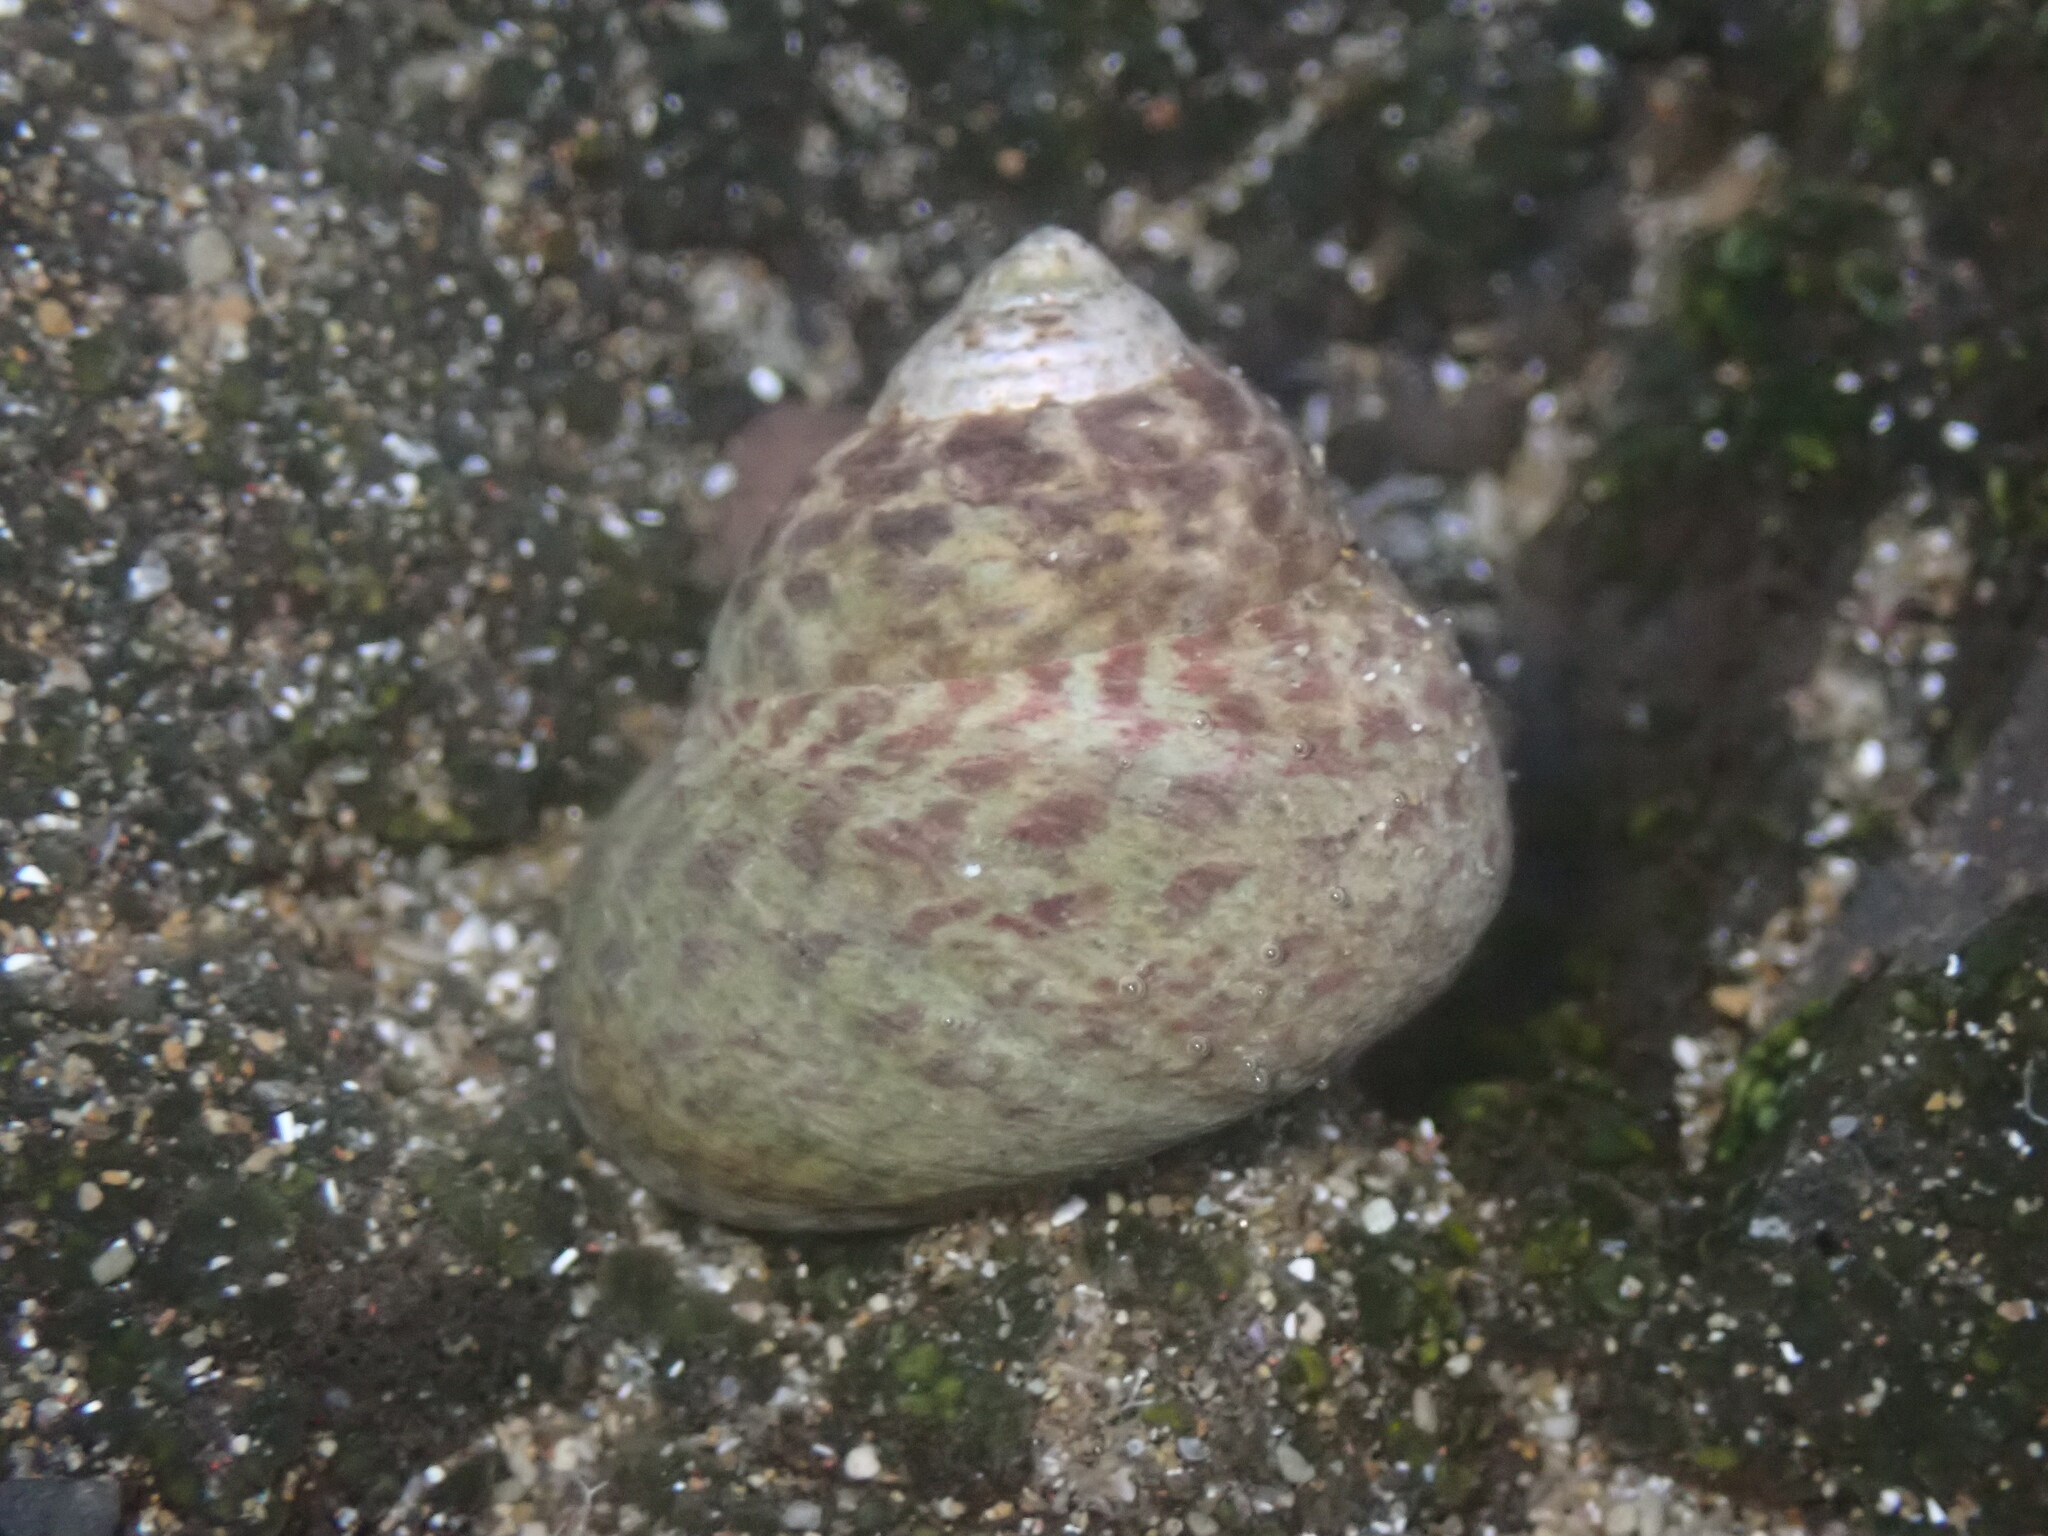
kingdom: Animalia
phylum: Mollusca
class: Gastropoda
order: Trochida
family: Trochidae
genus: Phorcus
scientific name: Phorcus sauciatus
